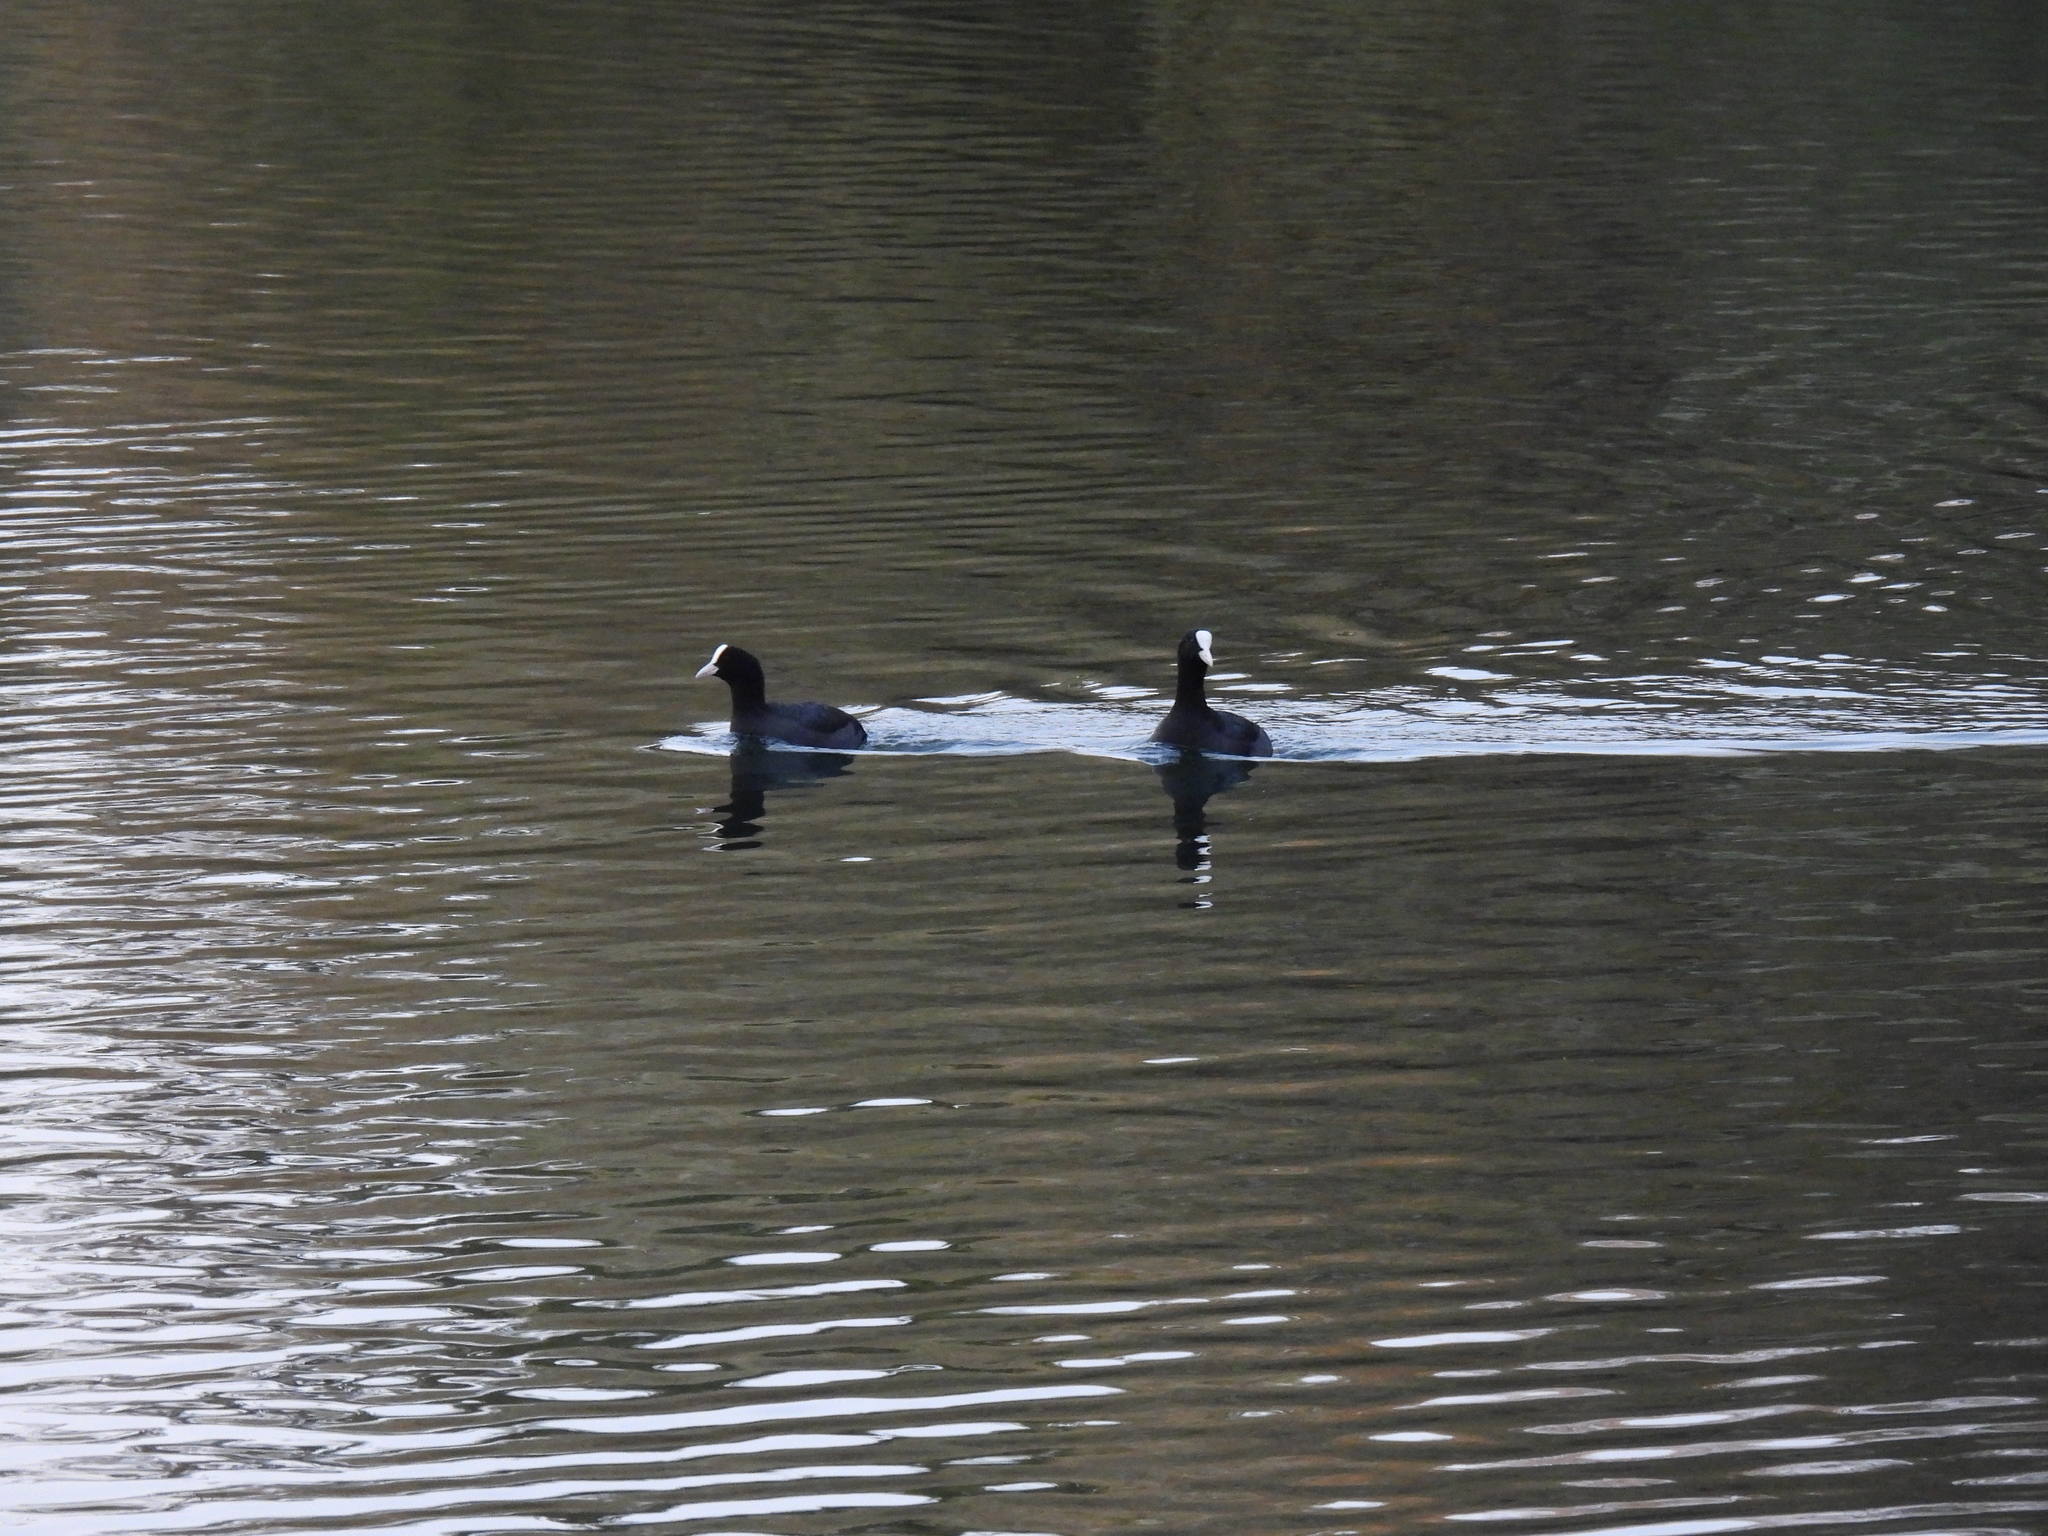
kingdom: Animalia
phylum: Chordata
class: Aves
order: Gruiformes
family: Rallidae
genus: Fulica
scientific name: Fulica atra
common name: Eurasian coot
